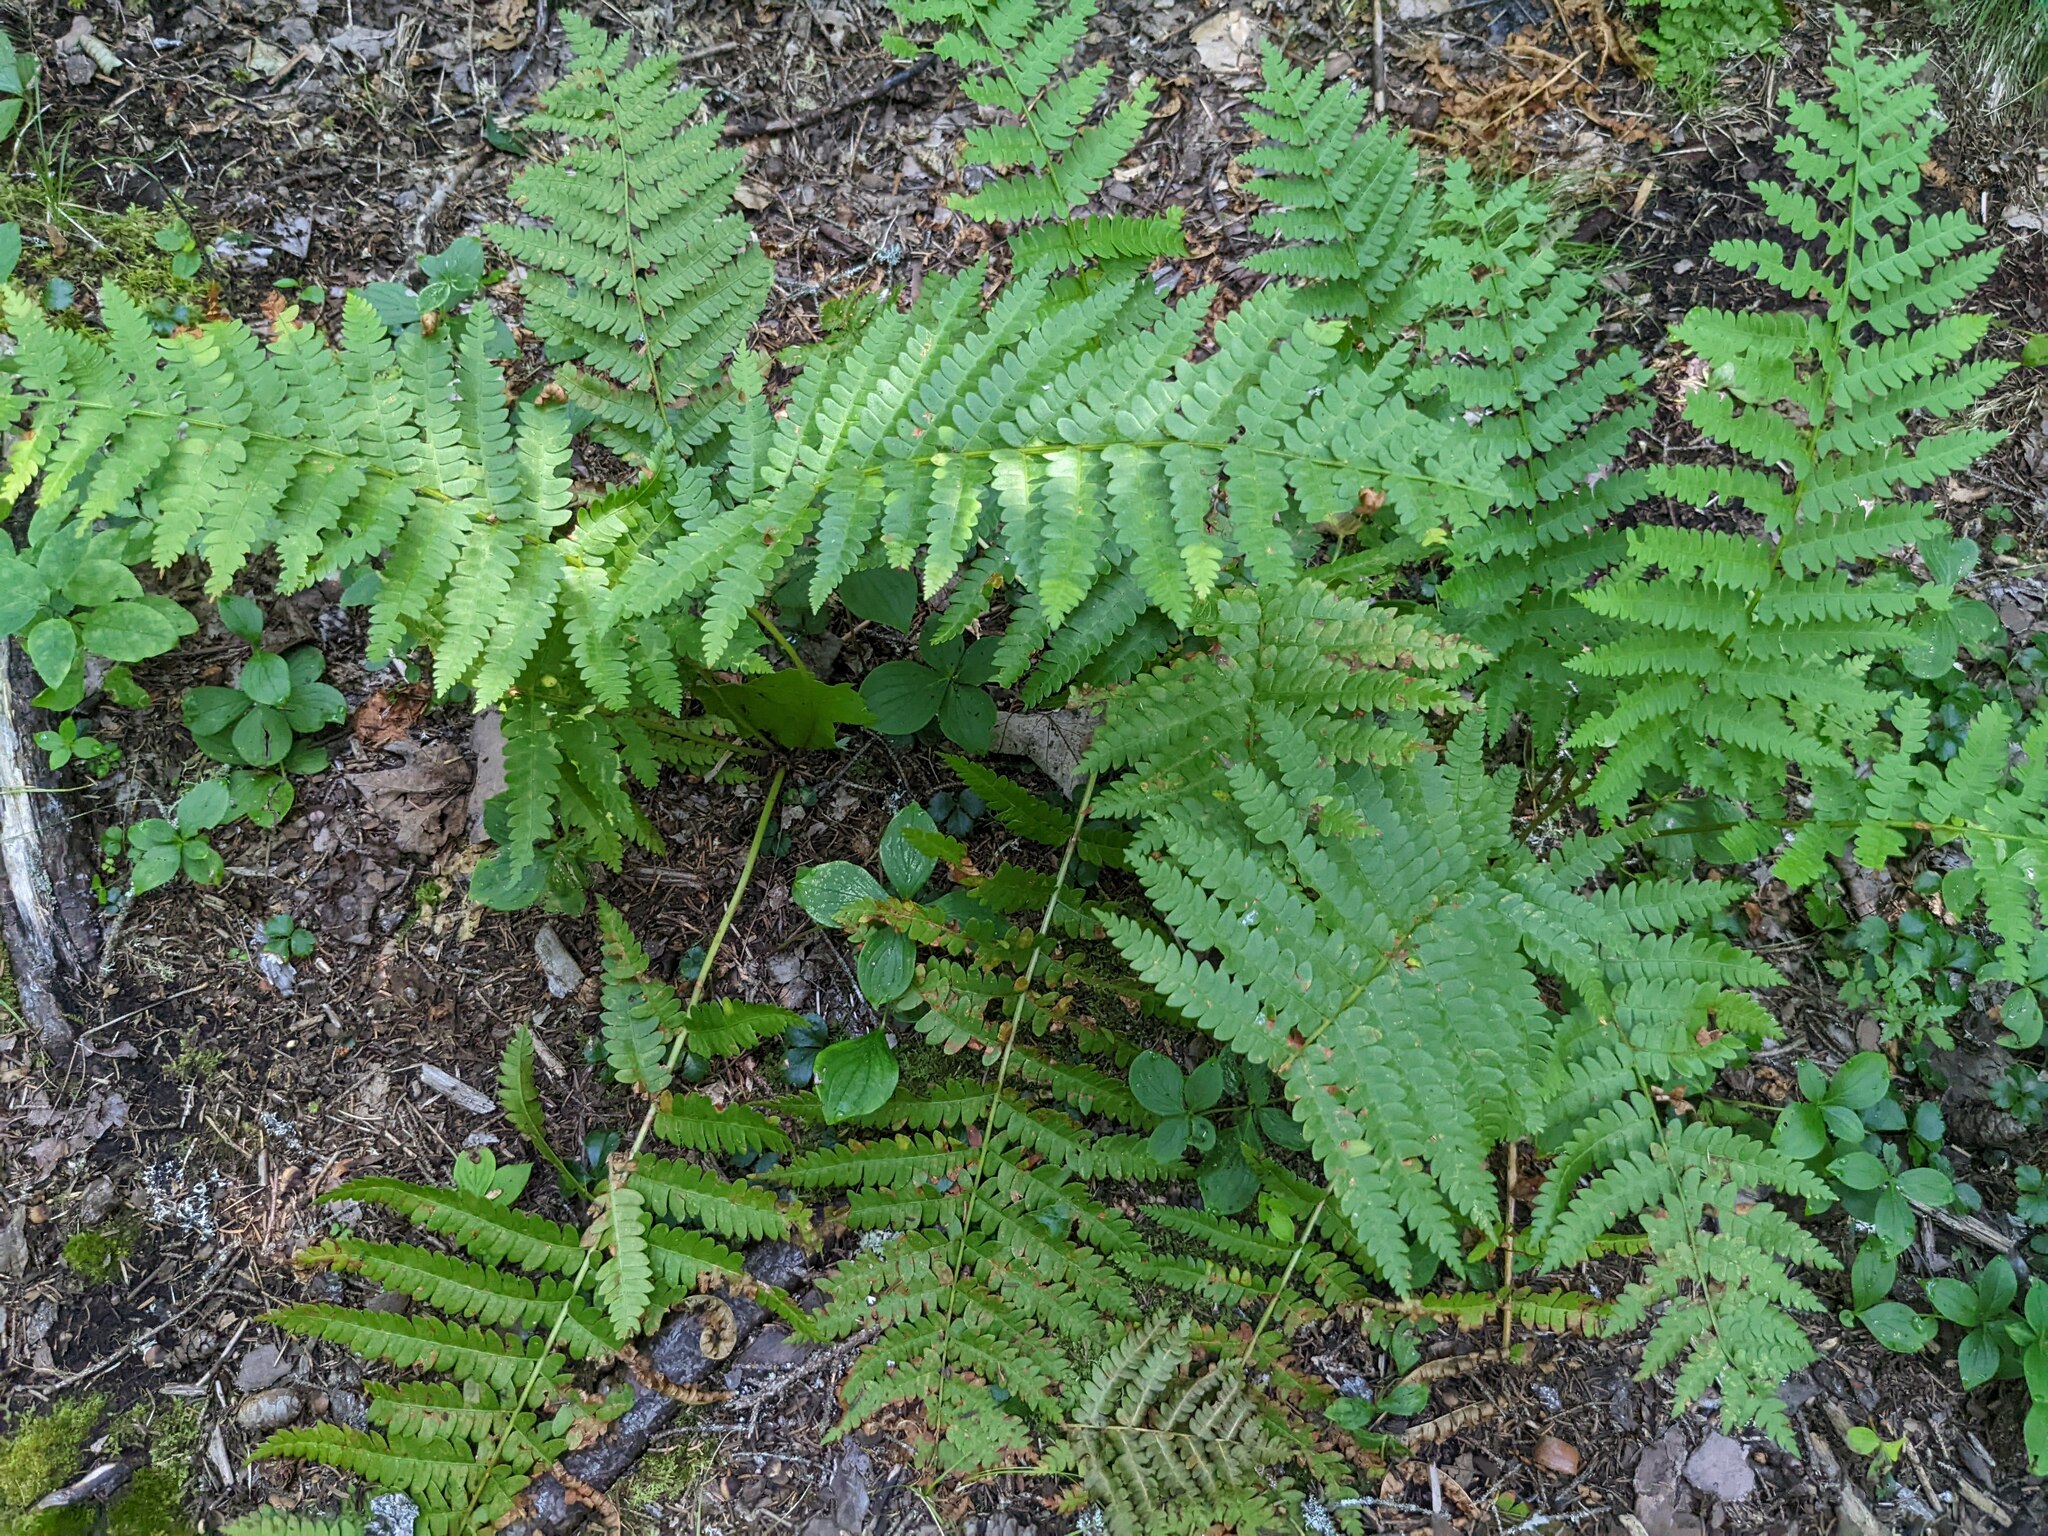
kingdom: Plantae
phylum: Tracheophyta
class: Polypodiopsida
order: Osmundales
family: Osmundaceae
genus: Osmundastrum
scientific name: Osmundastrum cinnamomeum
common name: Cinnamon fern
